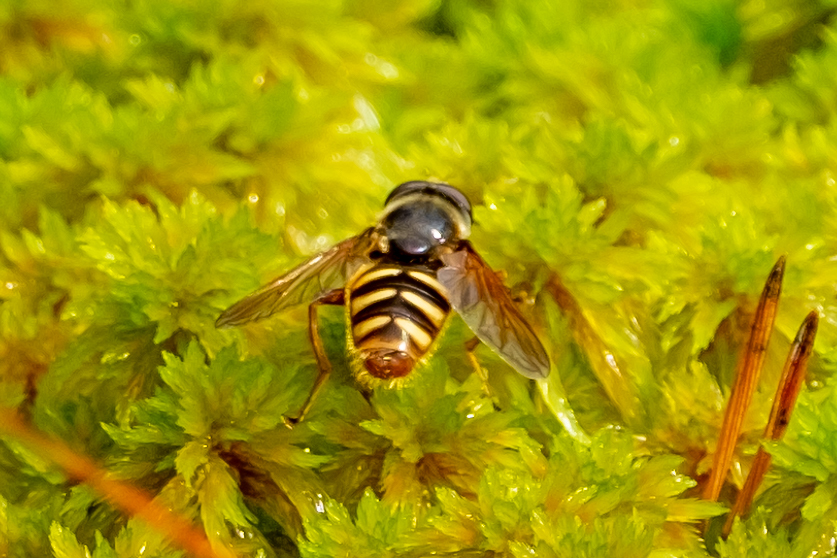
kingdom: Animalia
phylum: Arthropoda
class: Insecta
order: Diptera
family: Syrphidae
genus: Sericomyia
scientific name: Sericomyia silentis
